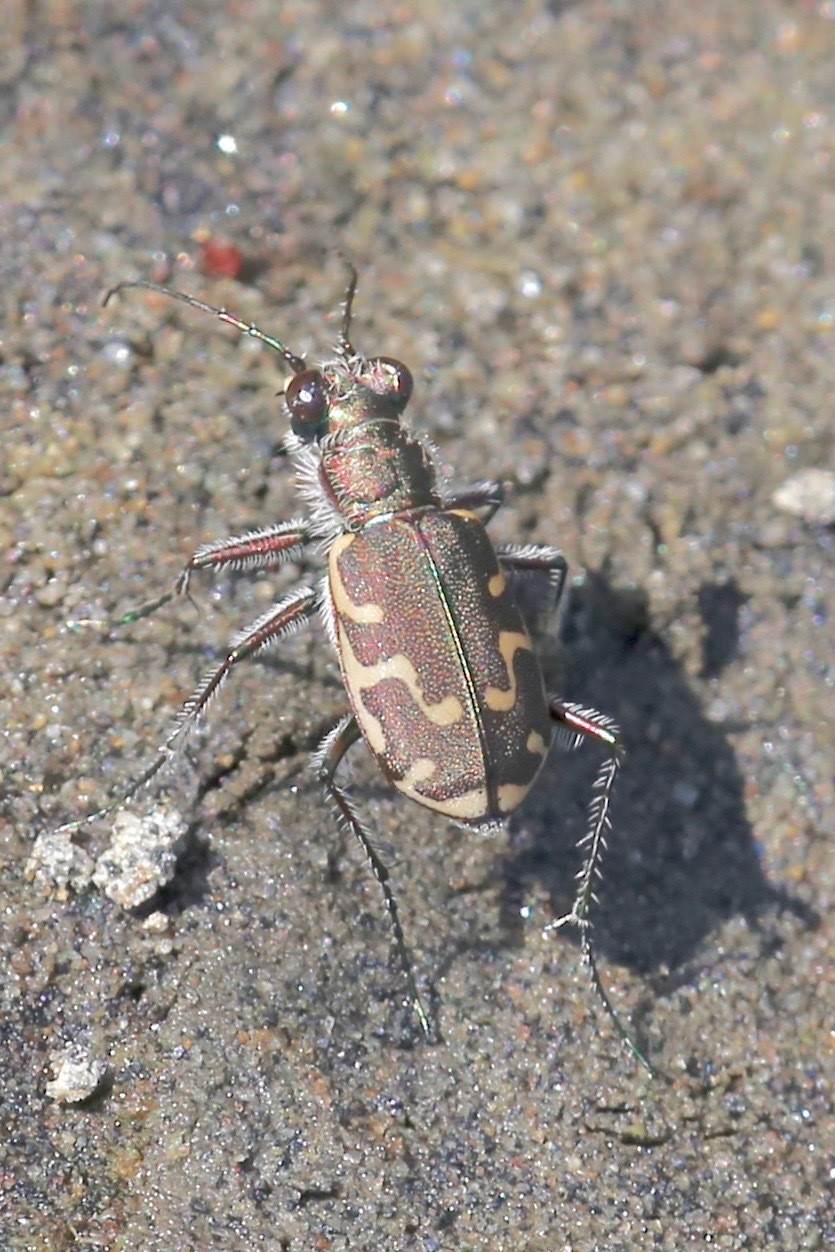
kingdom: Animalia
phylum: Arthropoda
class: Insecta
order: Coleoptera
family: Carabidae
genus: Cicindela
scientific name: Cicindela repanda
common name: Bronzed tiger beetle
